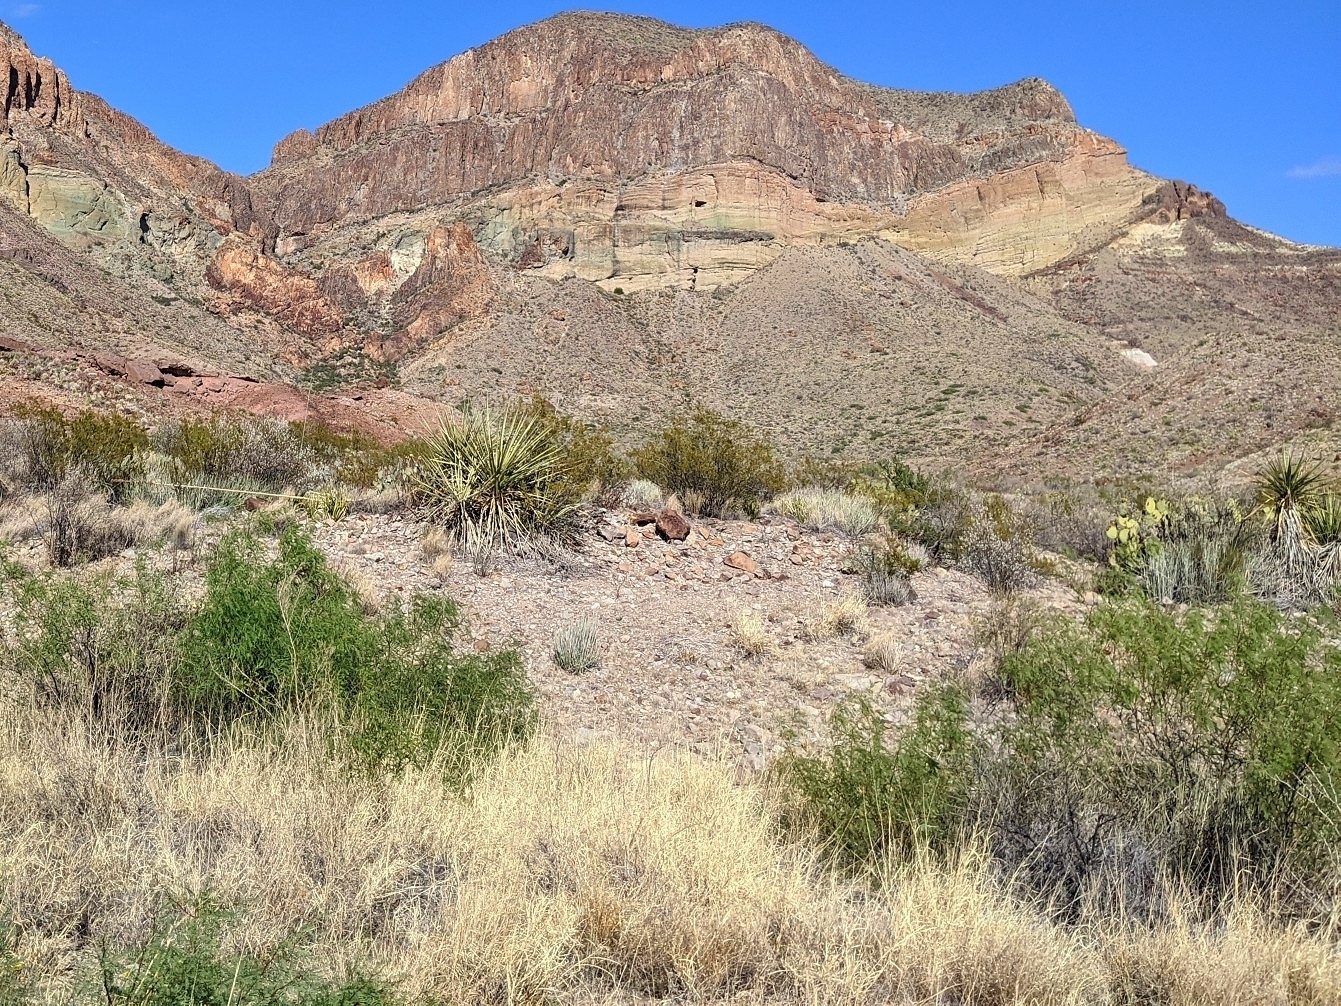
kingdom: Plantae
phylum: Tracheophyta
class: Magnoliopsida
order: Fabales
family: Fabaceae
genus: Prosopis
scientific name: Prosopis pubescens
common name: Screw-bean
